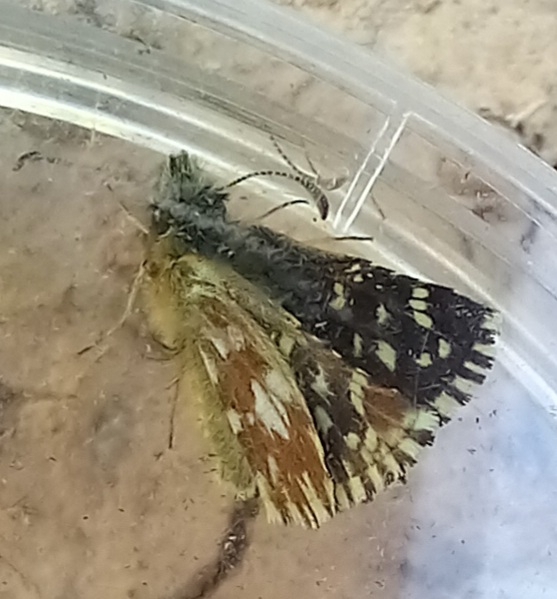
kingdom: Animalia
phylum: Arthropoda
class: Insecta
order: Lepidoptera
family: Hesperiidae
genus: Pyrgus
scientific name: Pyrgus malvoides
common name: Southern grizzled skipper
